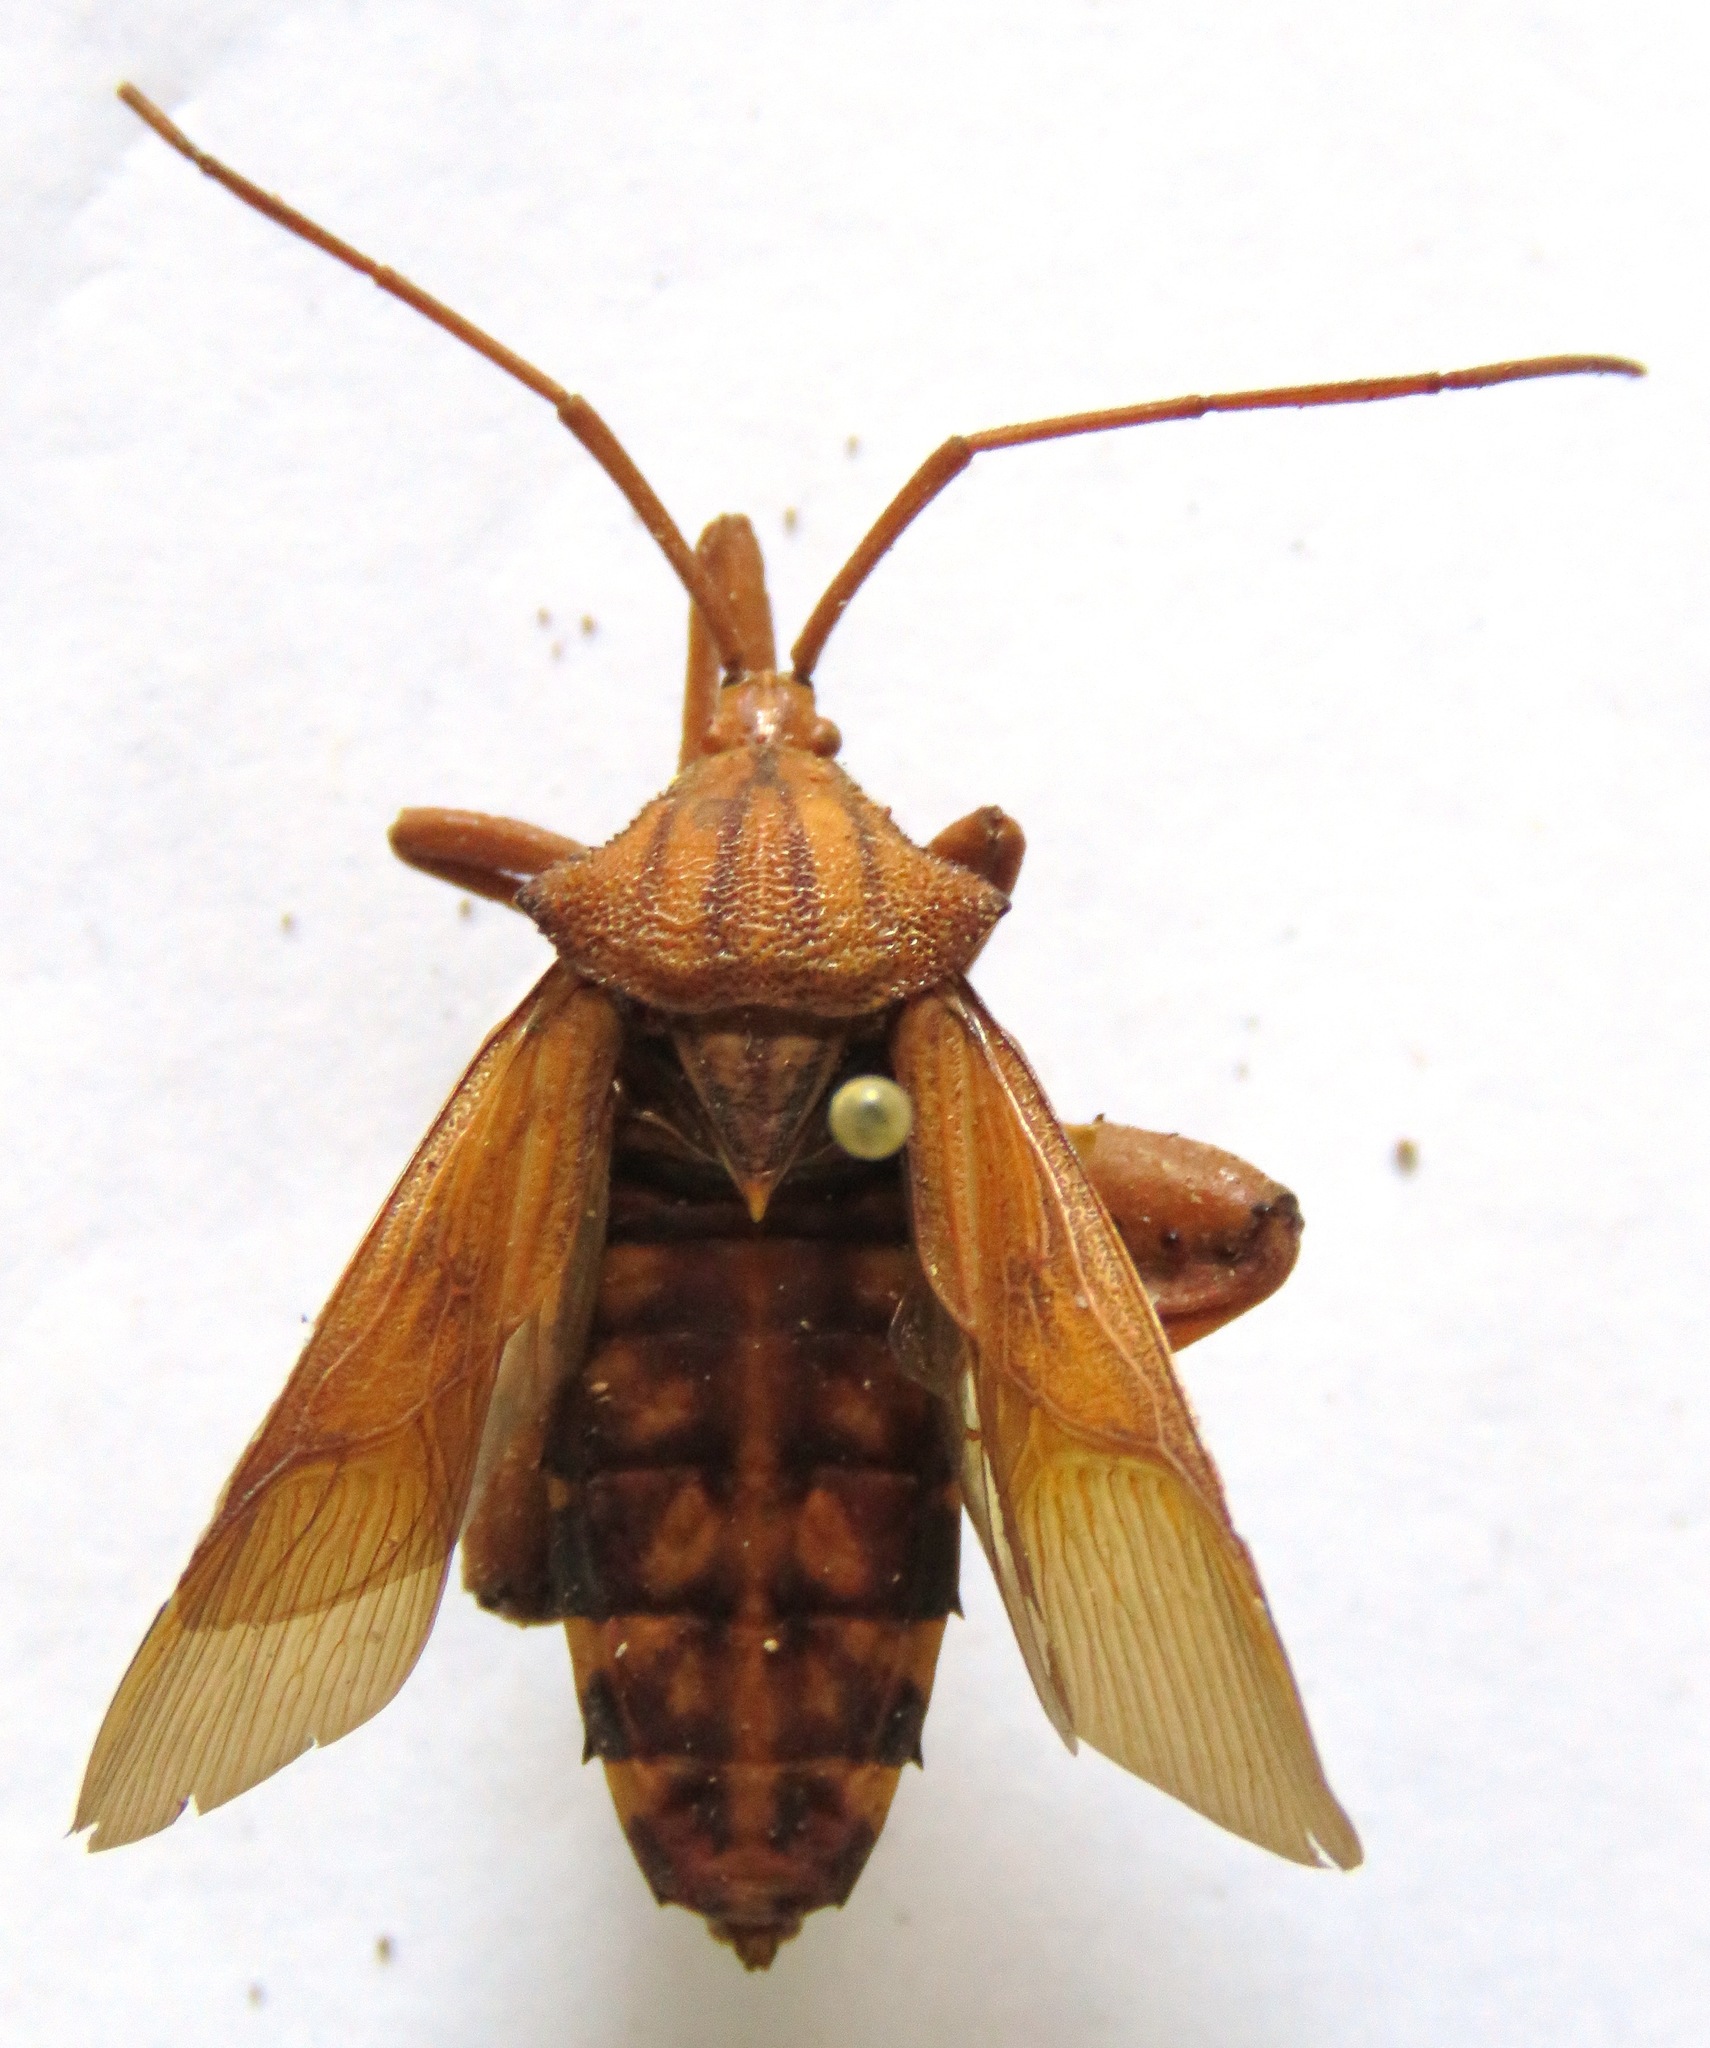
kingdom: Animalia
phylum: Arthropoda
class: Insecta
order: Hemiptera
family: Coreidae
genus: Melucha
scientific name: Melucha quadrivittis
